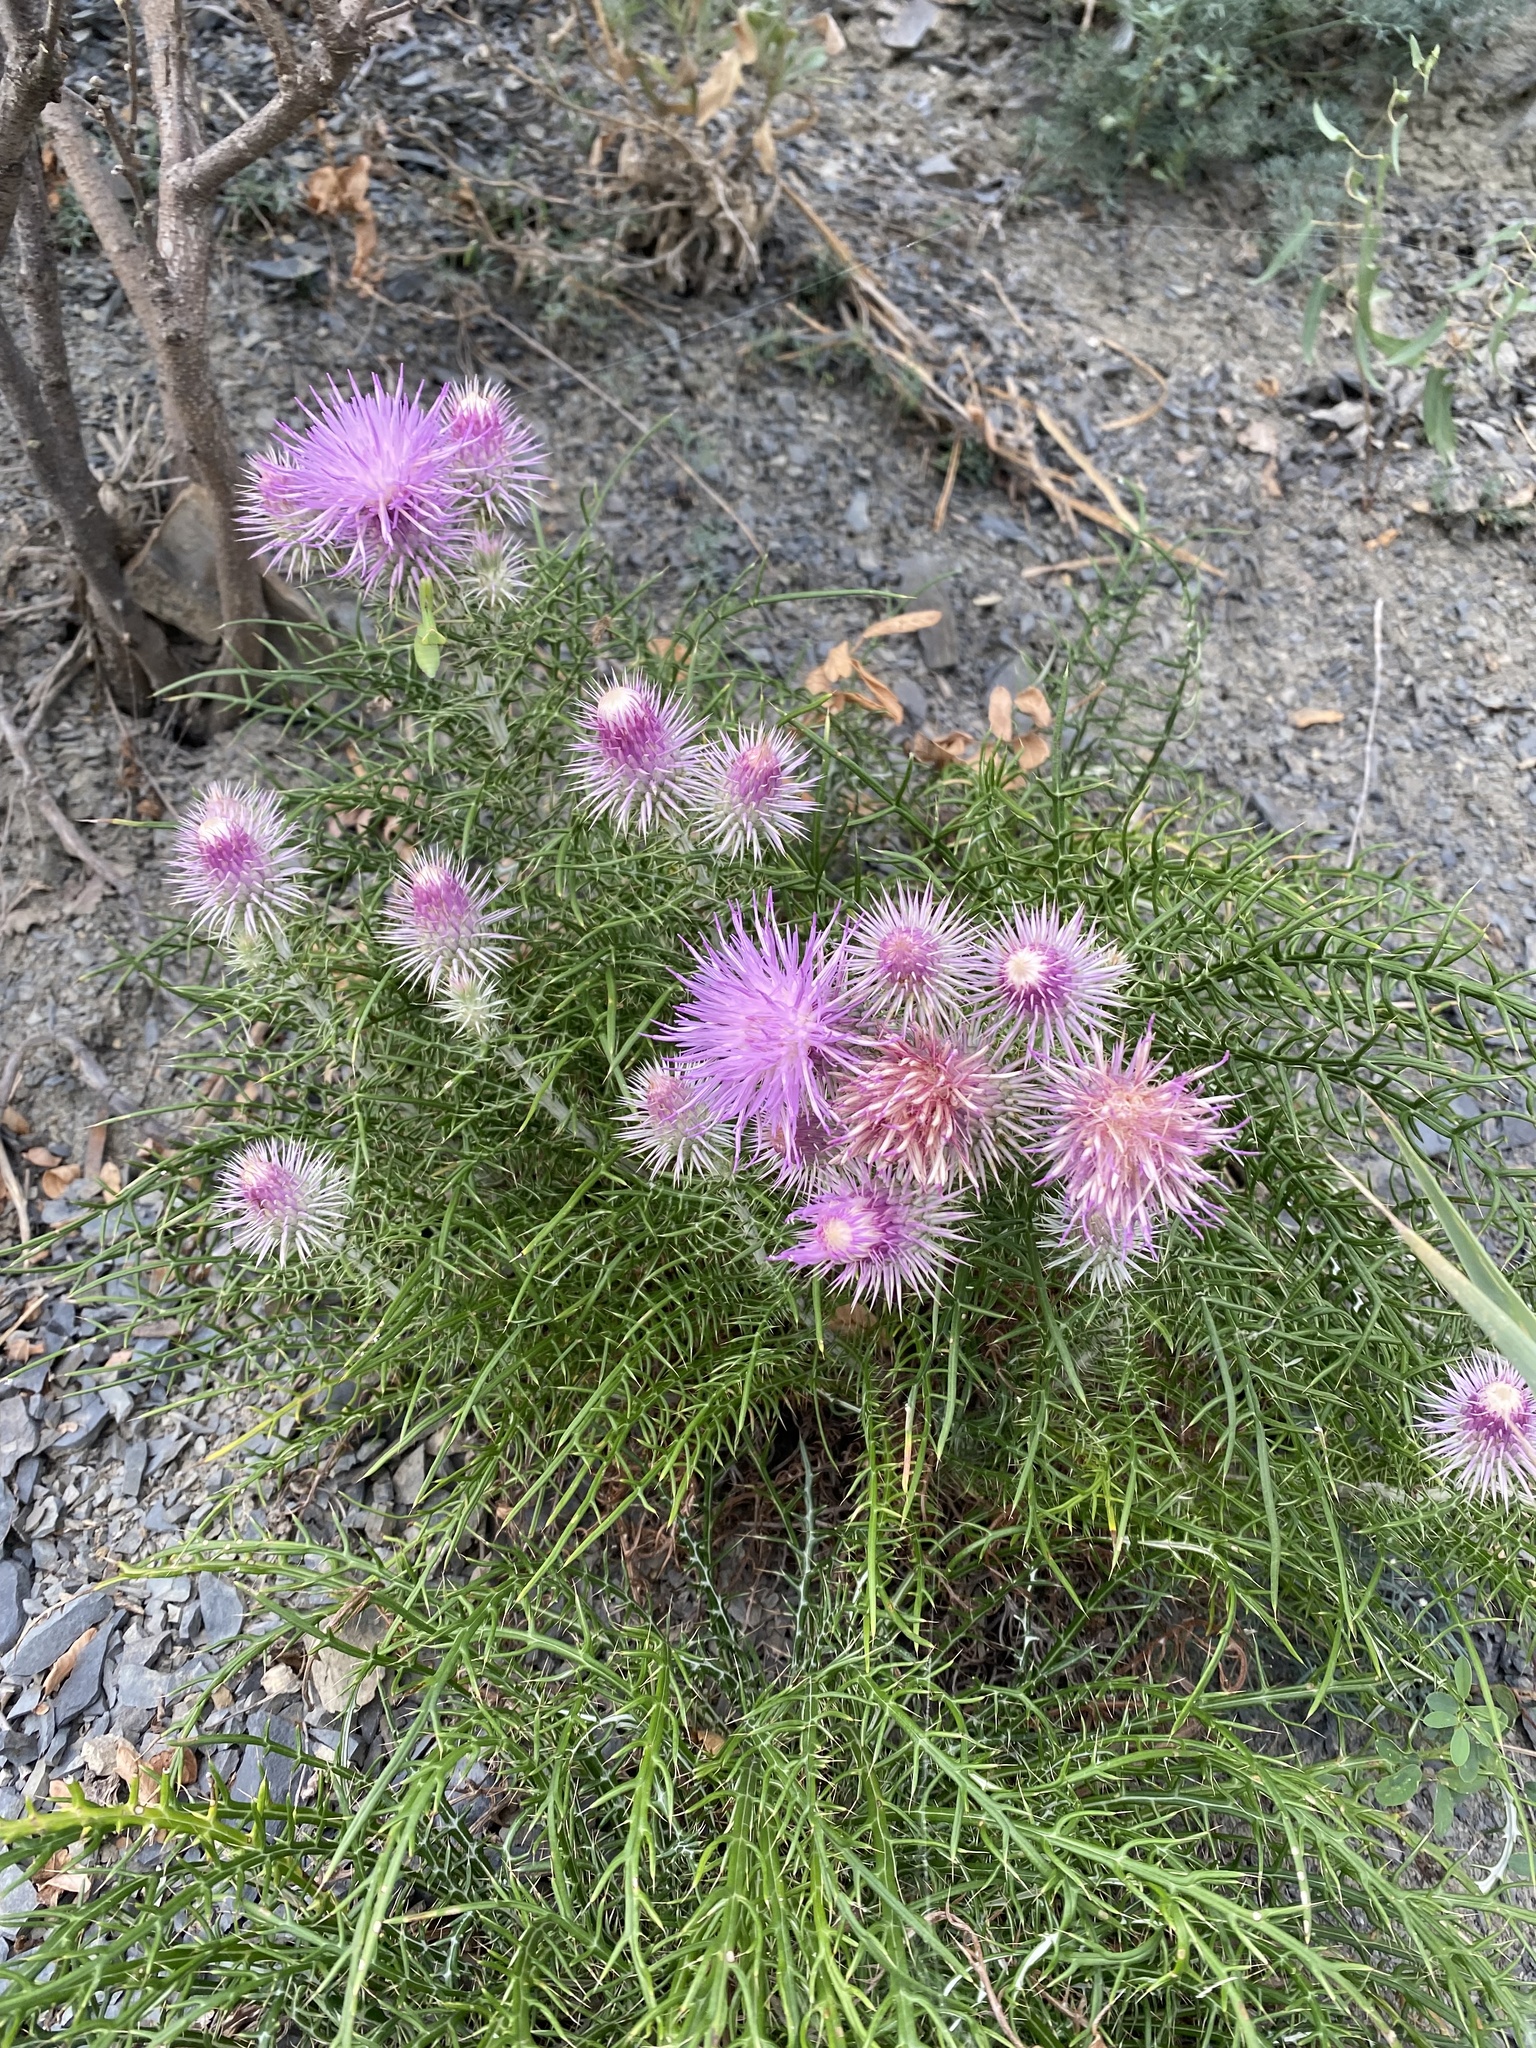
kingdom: Plantae
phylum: Tracheophyta
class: Magnoliopsida
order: Asterales
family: Asteraceae
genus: Ptilostemon
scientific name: Ptilostemon echinocephalus
